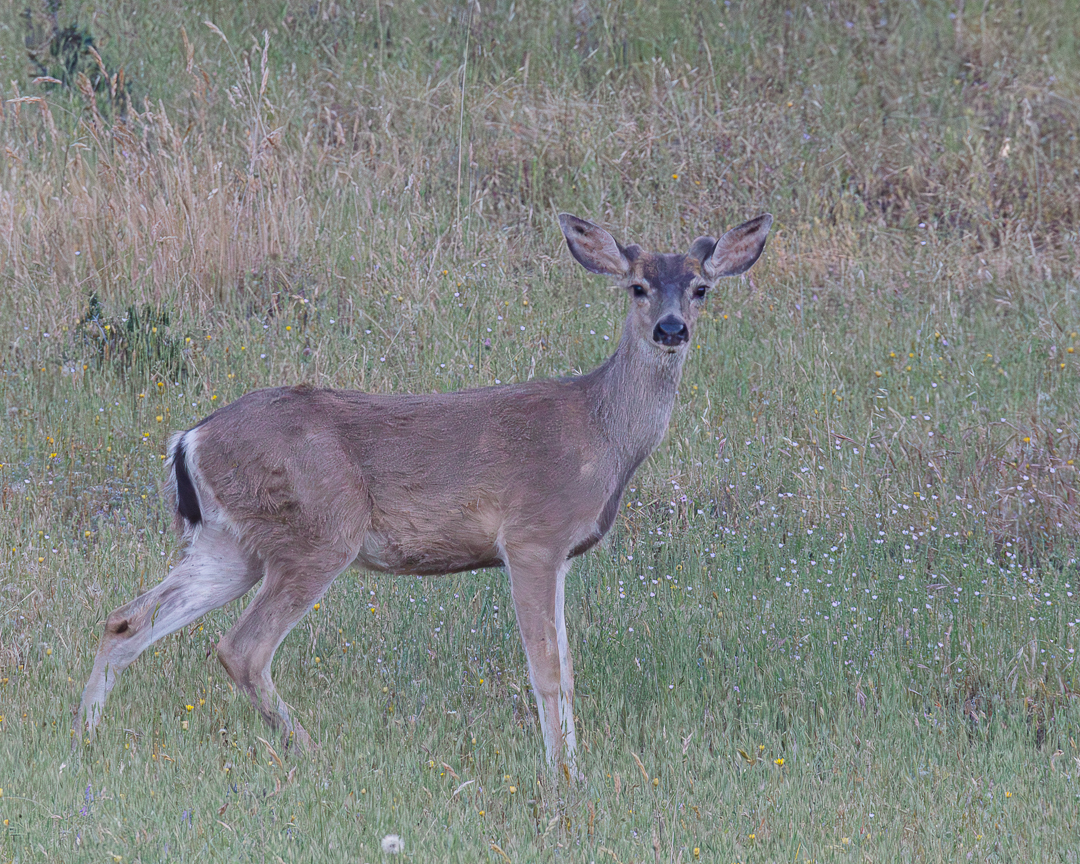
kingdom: Animalia
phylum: Chordata
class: Mammalia
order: Artiodactyla
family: Cervidae
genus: Odocoileus
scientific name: Odocoileus hemionus
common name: Mule deer
